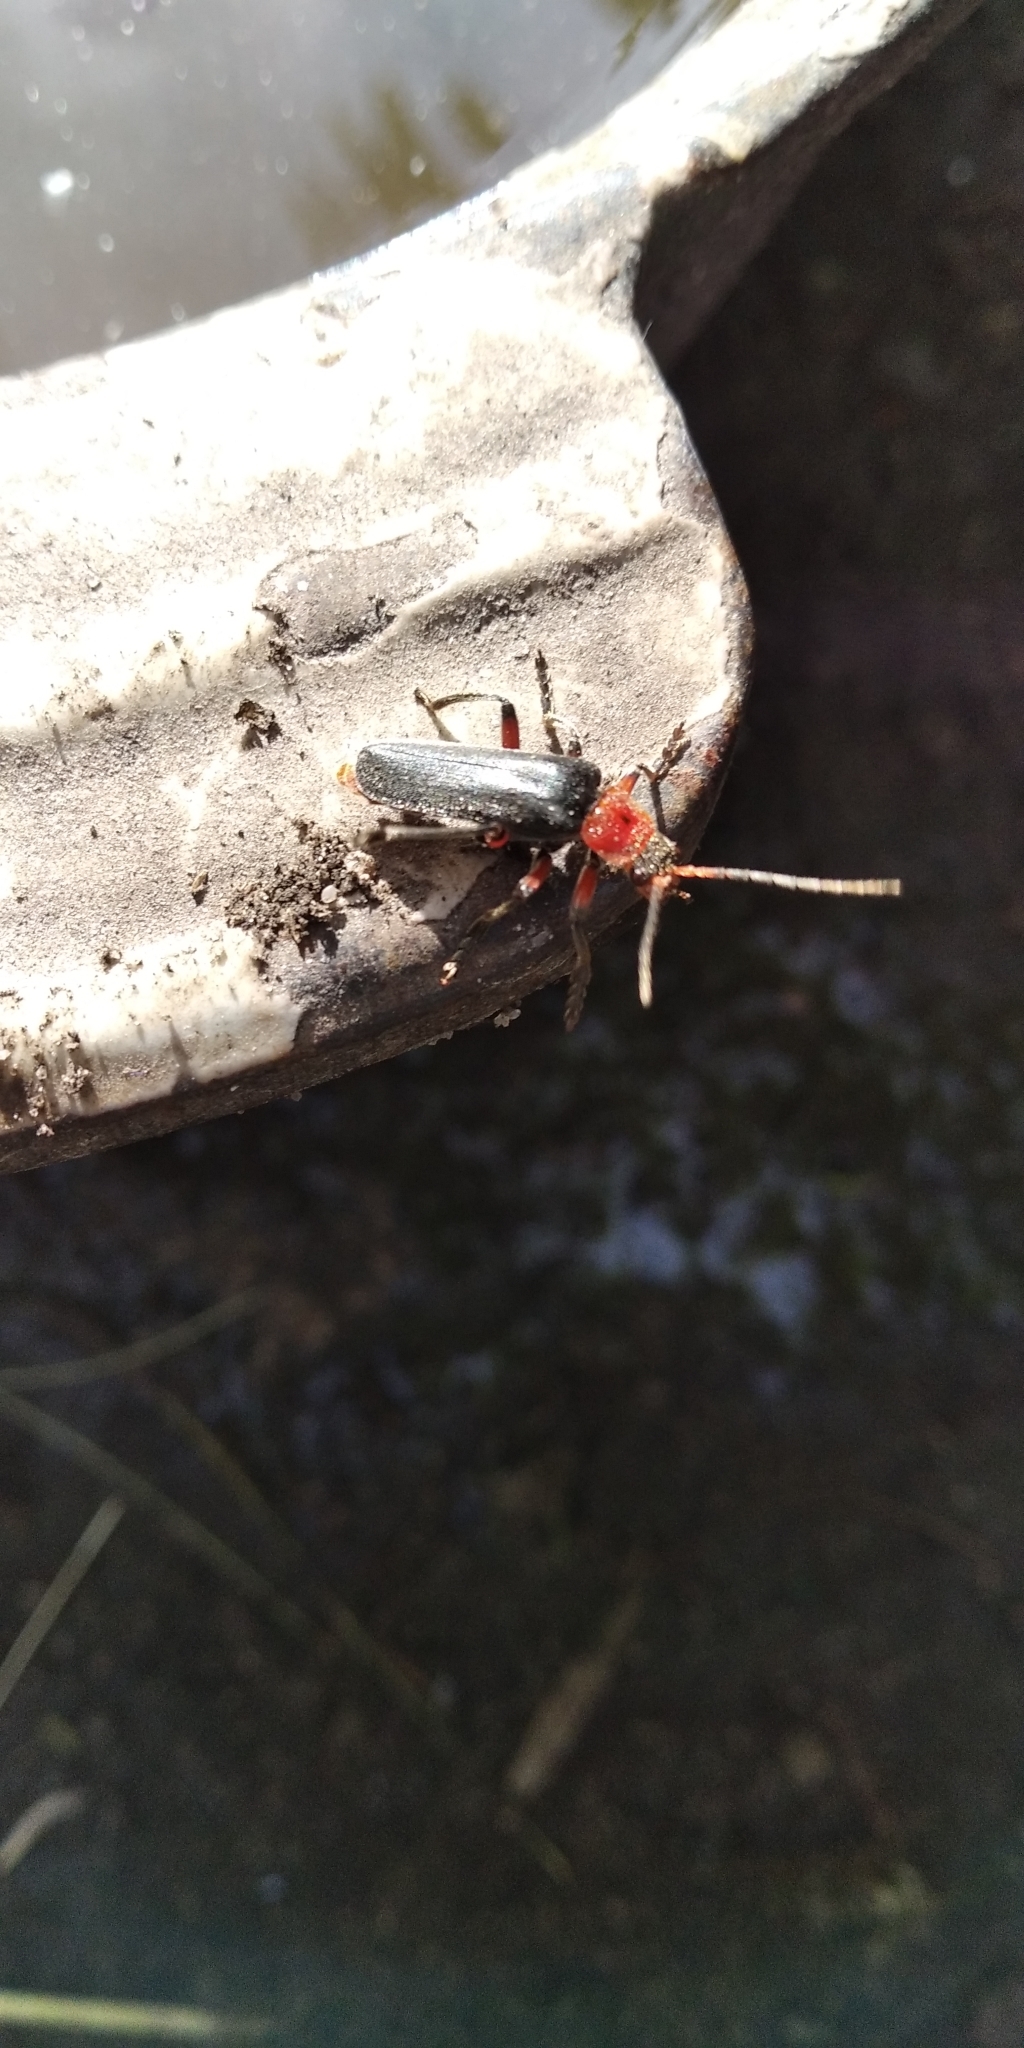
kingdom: Animalia
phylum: Arthropoda
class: Insecta
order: Coleoptera
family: Cantharidae
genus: Cantharis
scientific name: Cantharis rustica
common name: Soldier beetle
